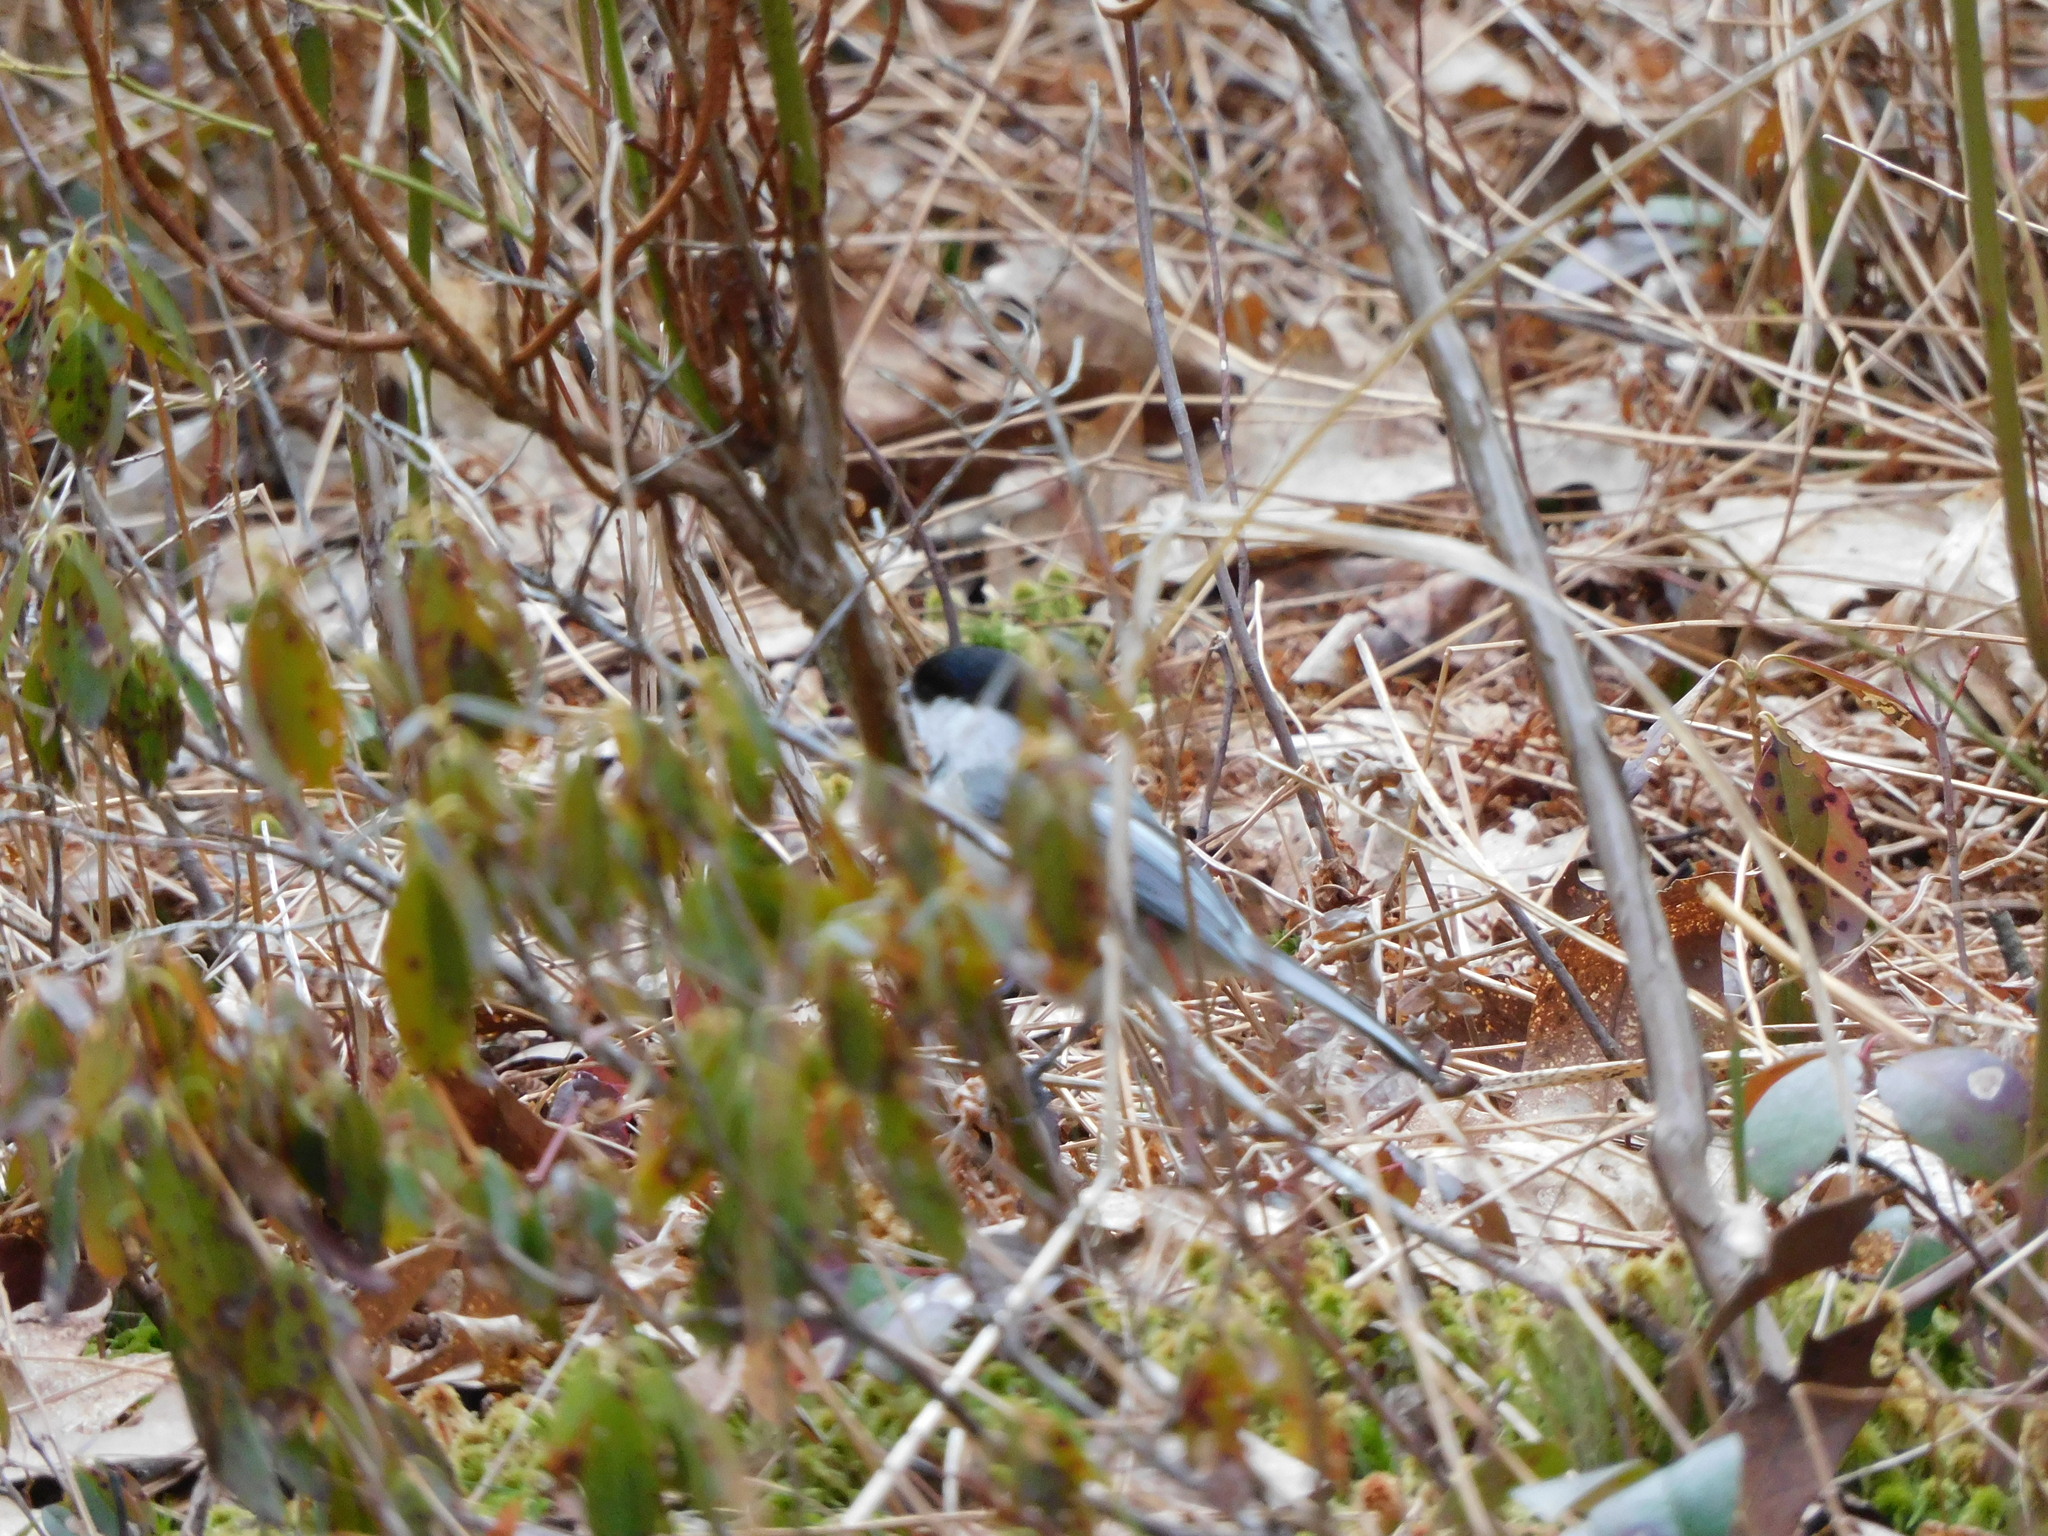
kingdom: Animalia
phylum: Chordata
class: Aves
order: Passeriformes
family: Paridae
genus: Poecile
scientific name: Poecile atricapillus
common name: Black-capped chickadee
